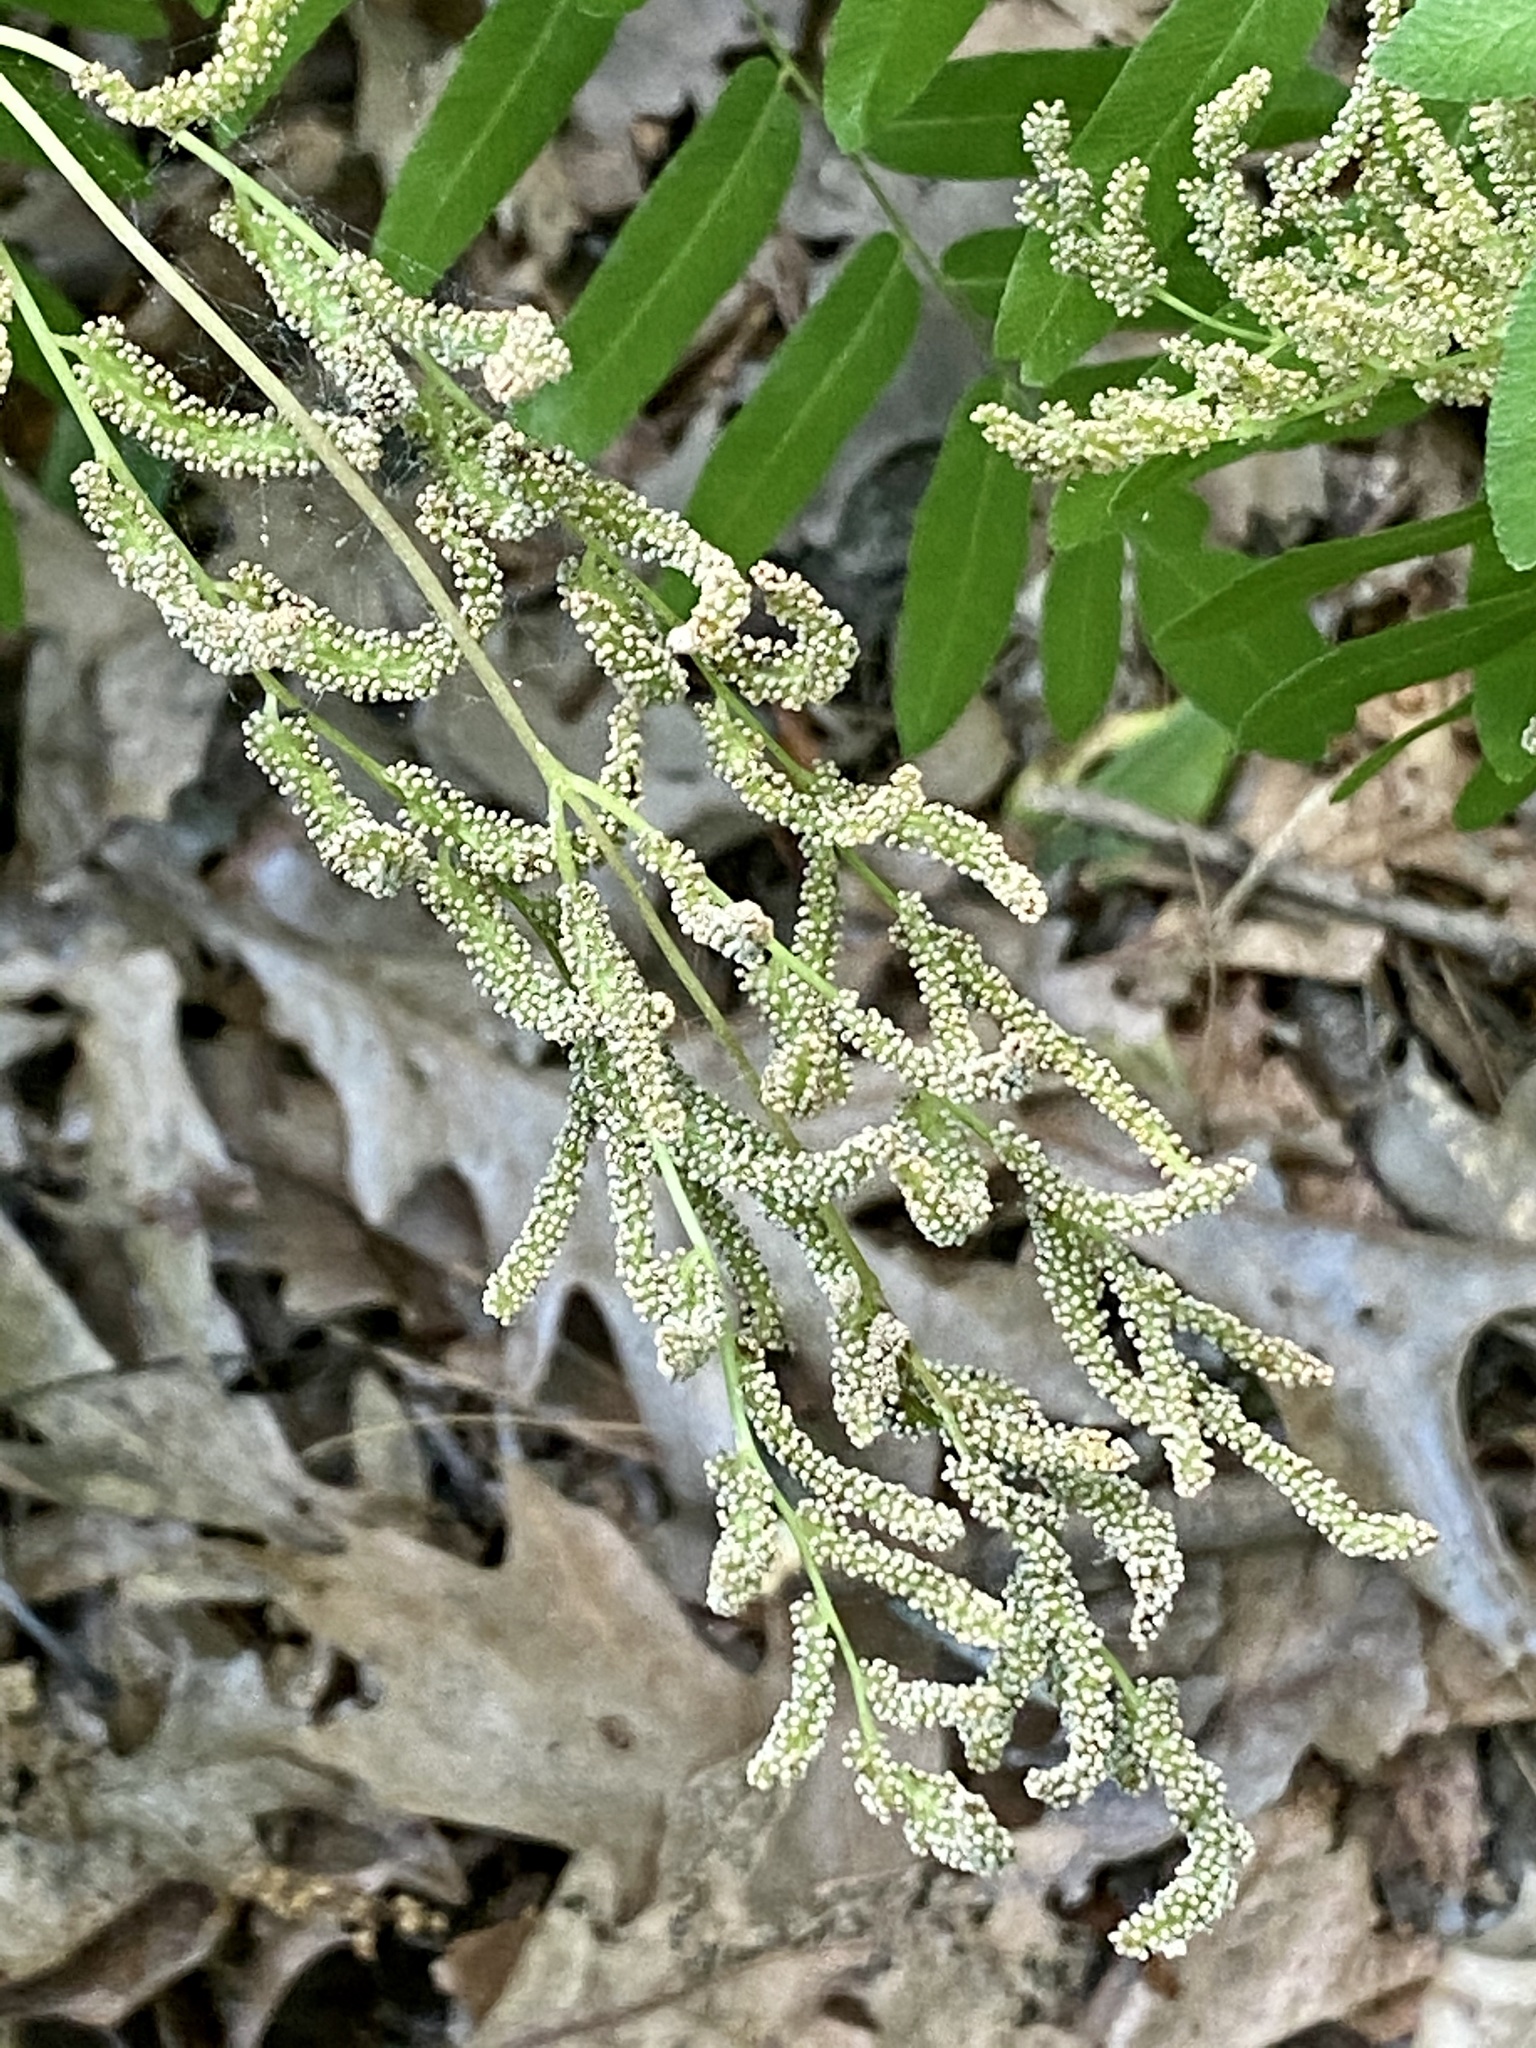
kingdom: Plantae
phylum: Tracheophyta
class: Polypodiopsida
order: Osmundales
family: Osmundaceae
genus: Osmunda
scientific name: Osmunda spectabilis
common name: American royal fern
